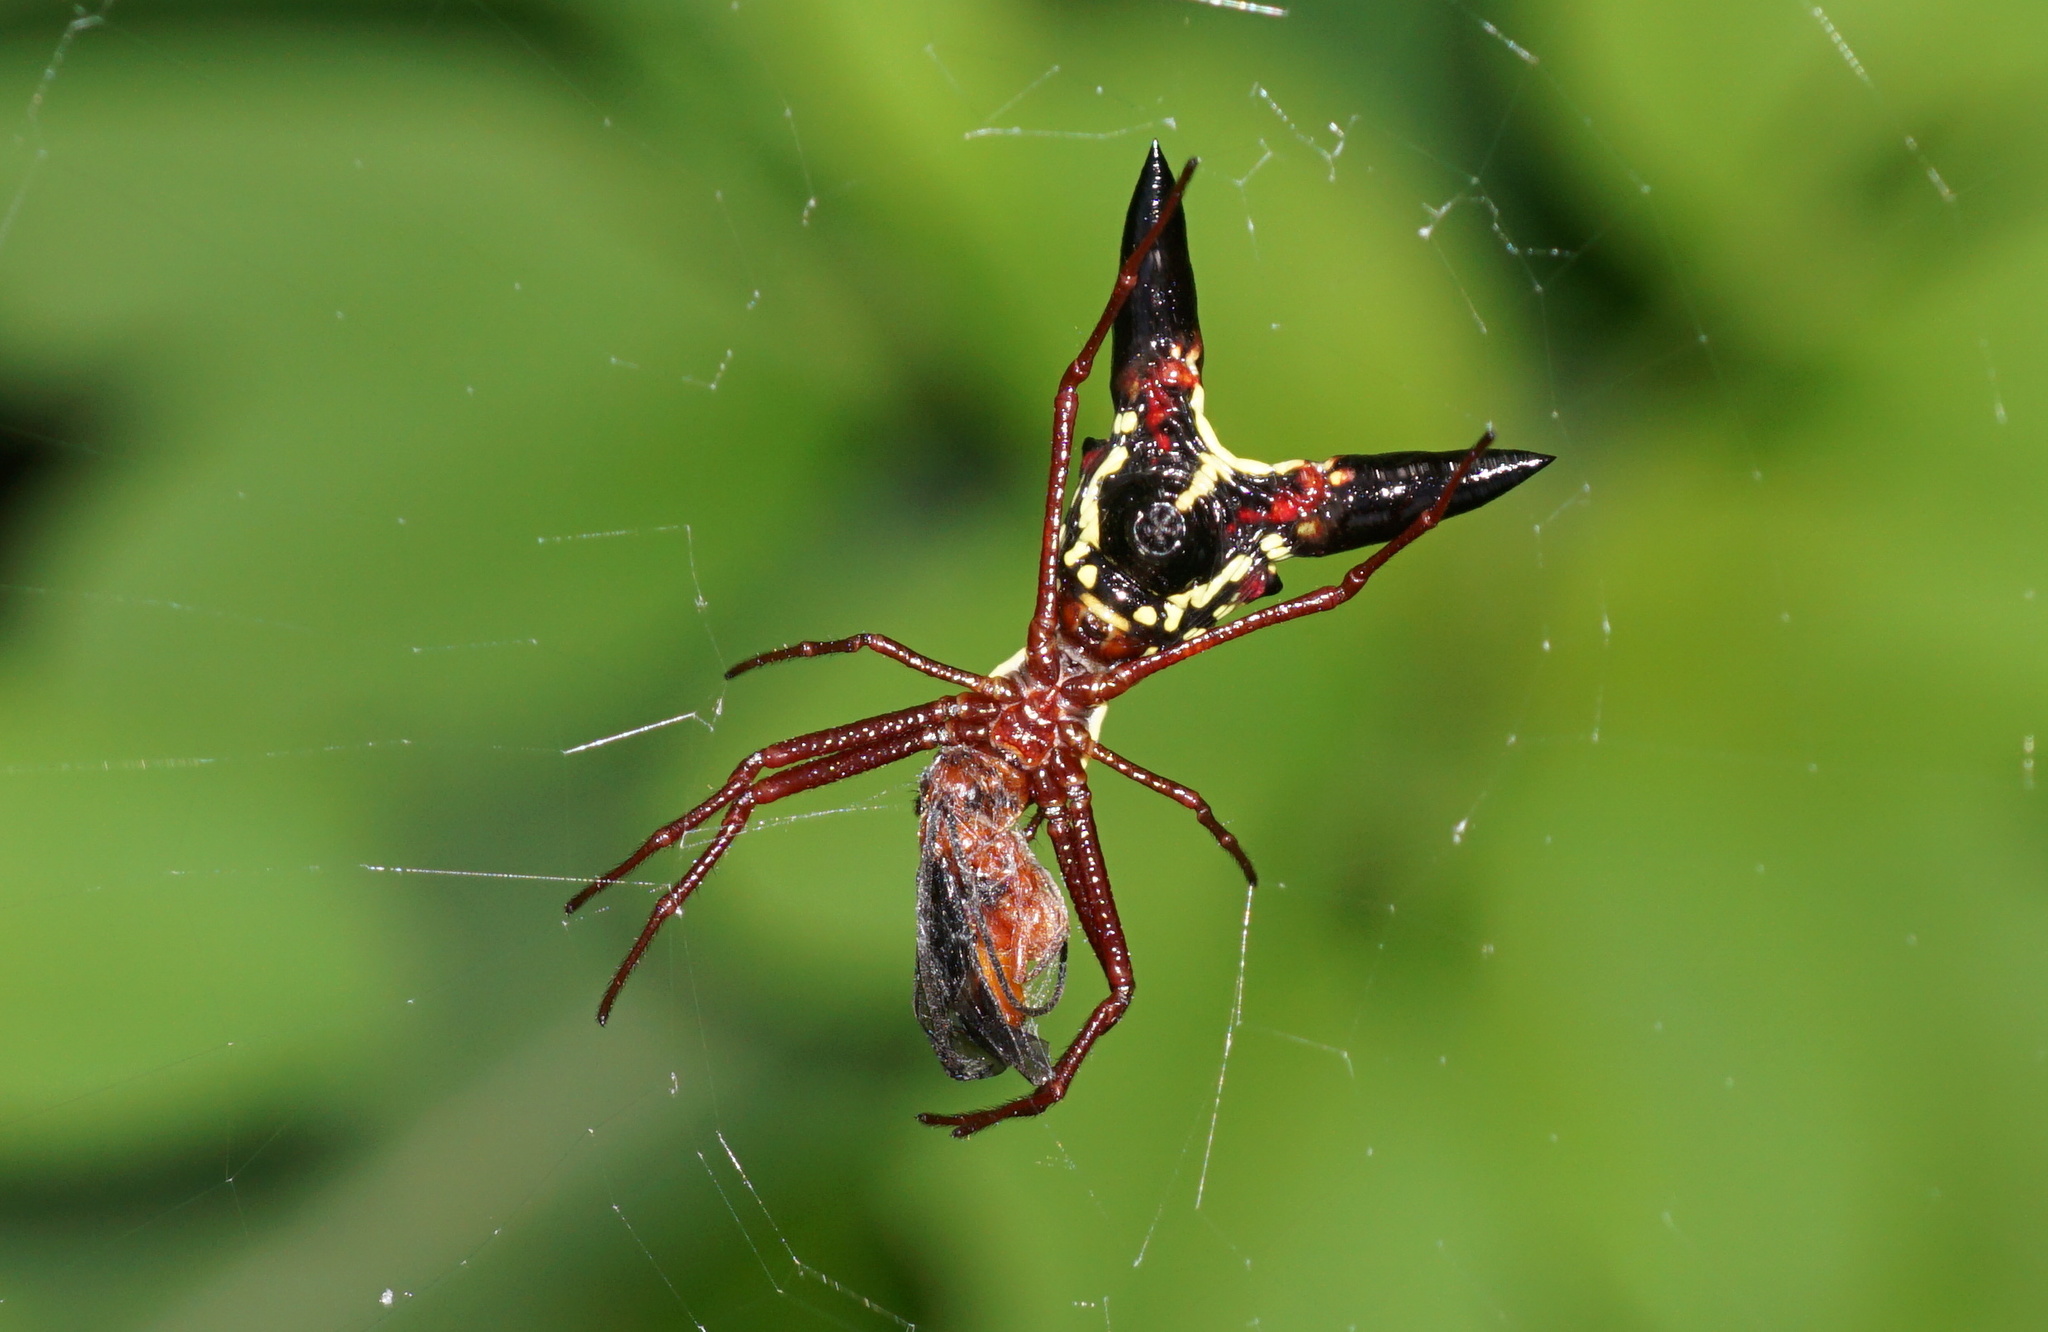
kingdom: Animalia
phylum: Arthropoda
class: Arachnida
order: Araneae
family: Araneidae
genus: Micrathena
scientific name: Micrathena sagittata
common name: Orb weavers
